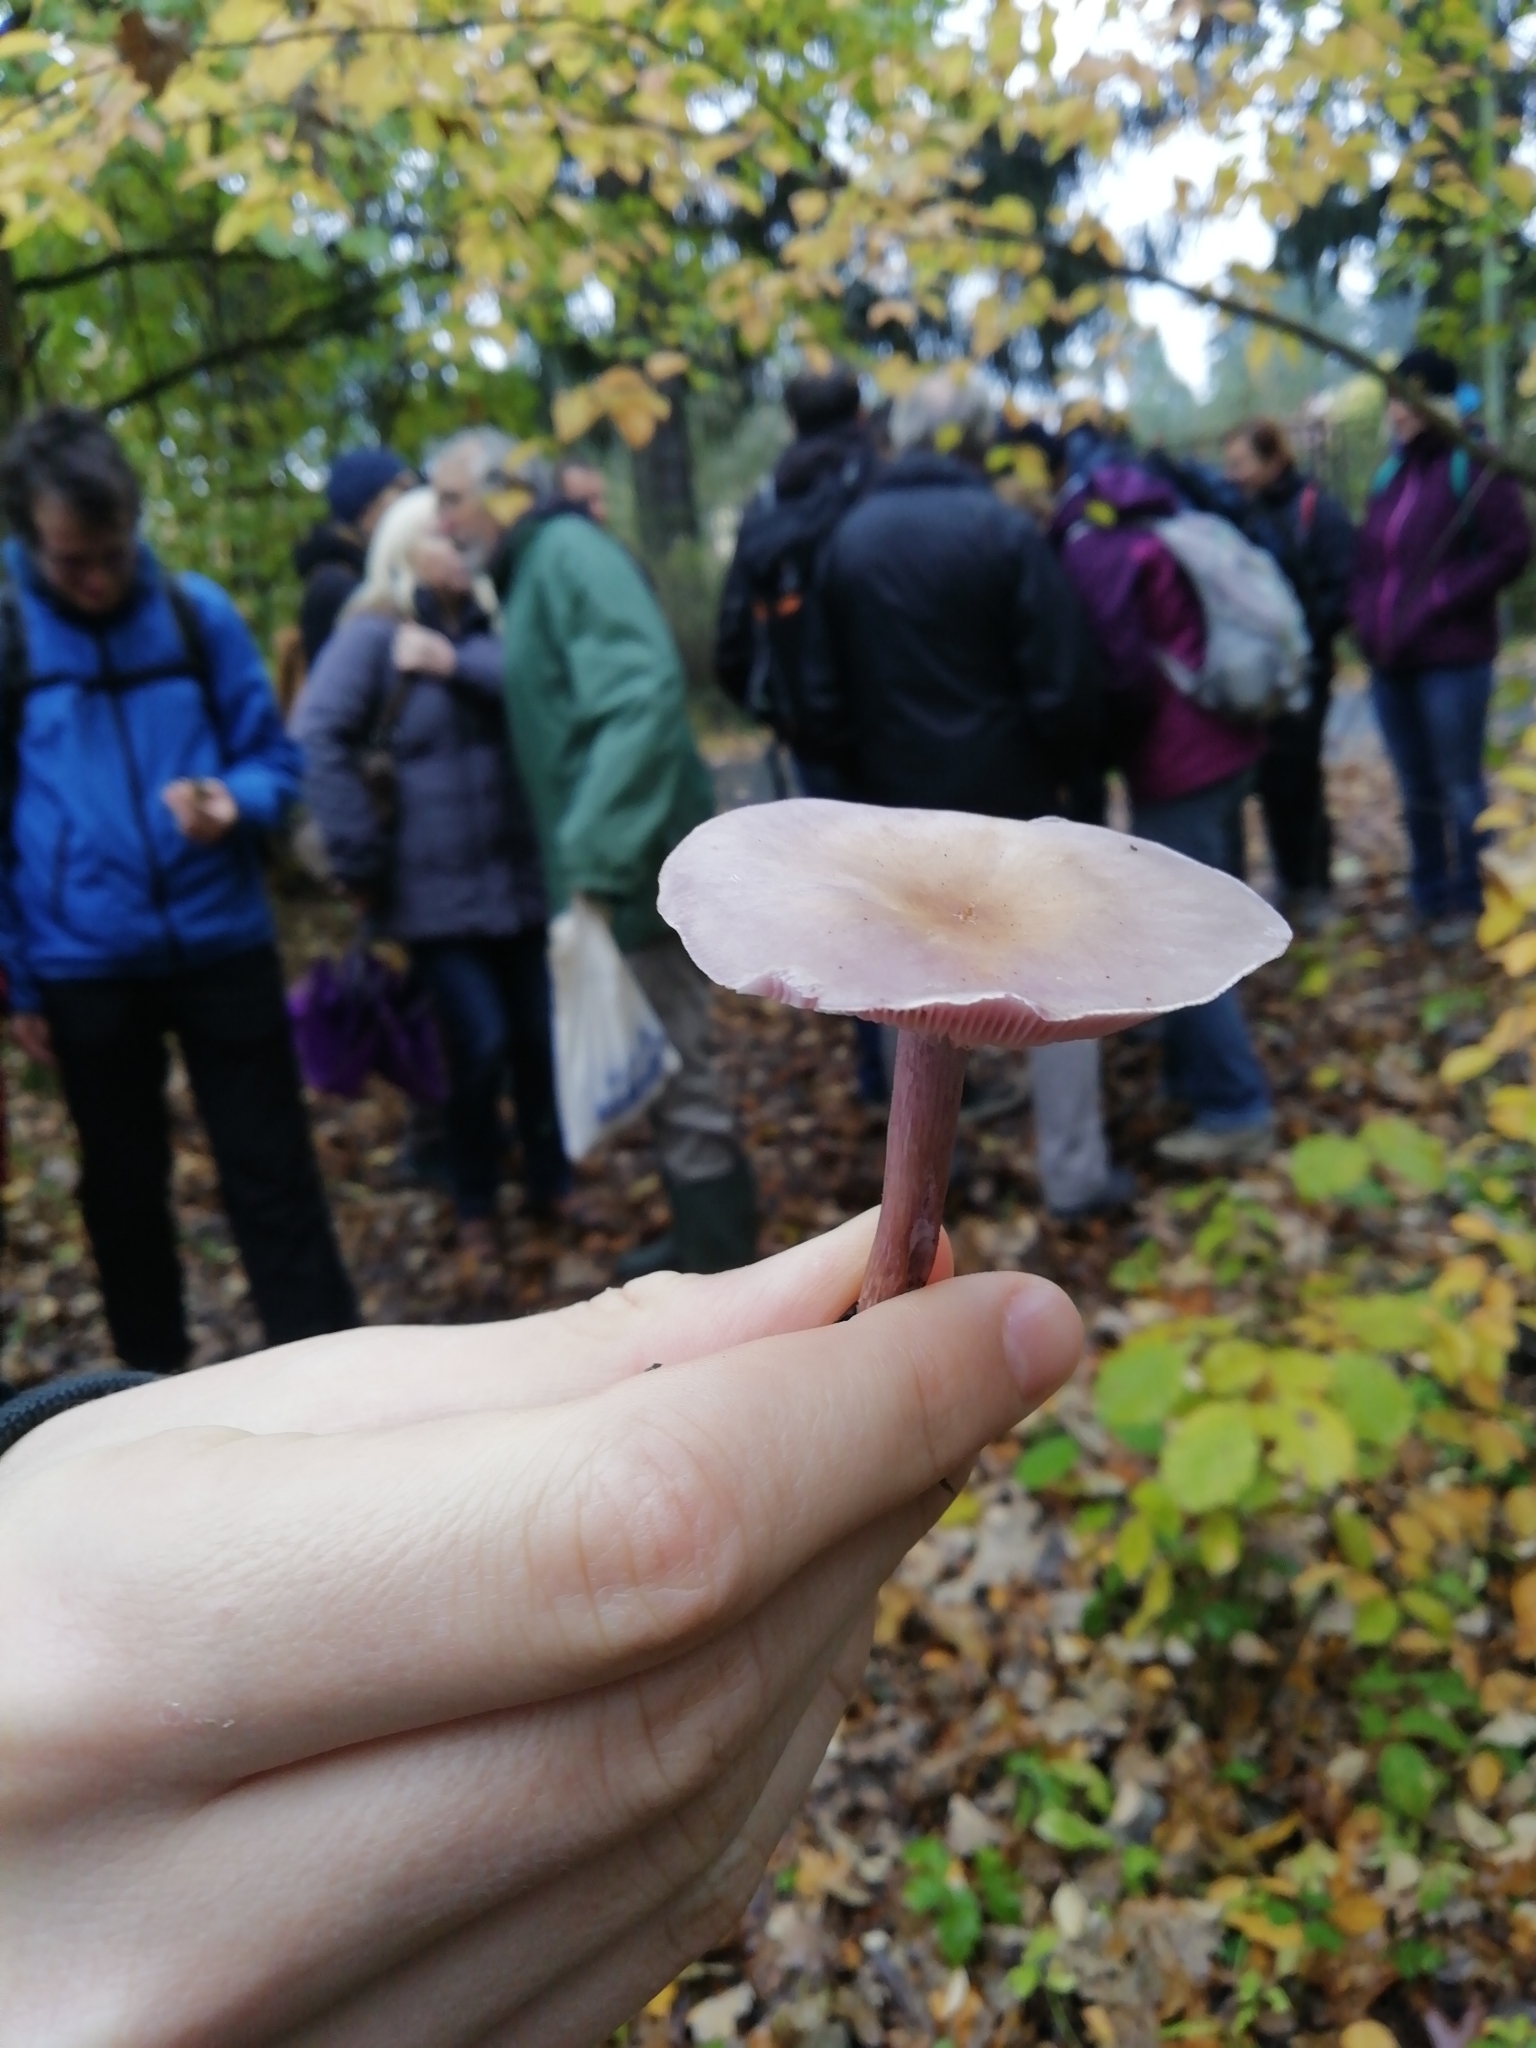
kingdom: Fungi
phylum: Basidiomycota
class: Agaricomycetes
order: Agaricales
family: Tricholomataceae
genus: Collybia
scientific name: Collybia
